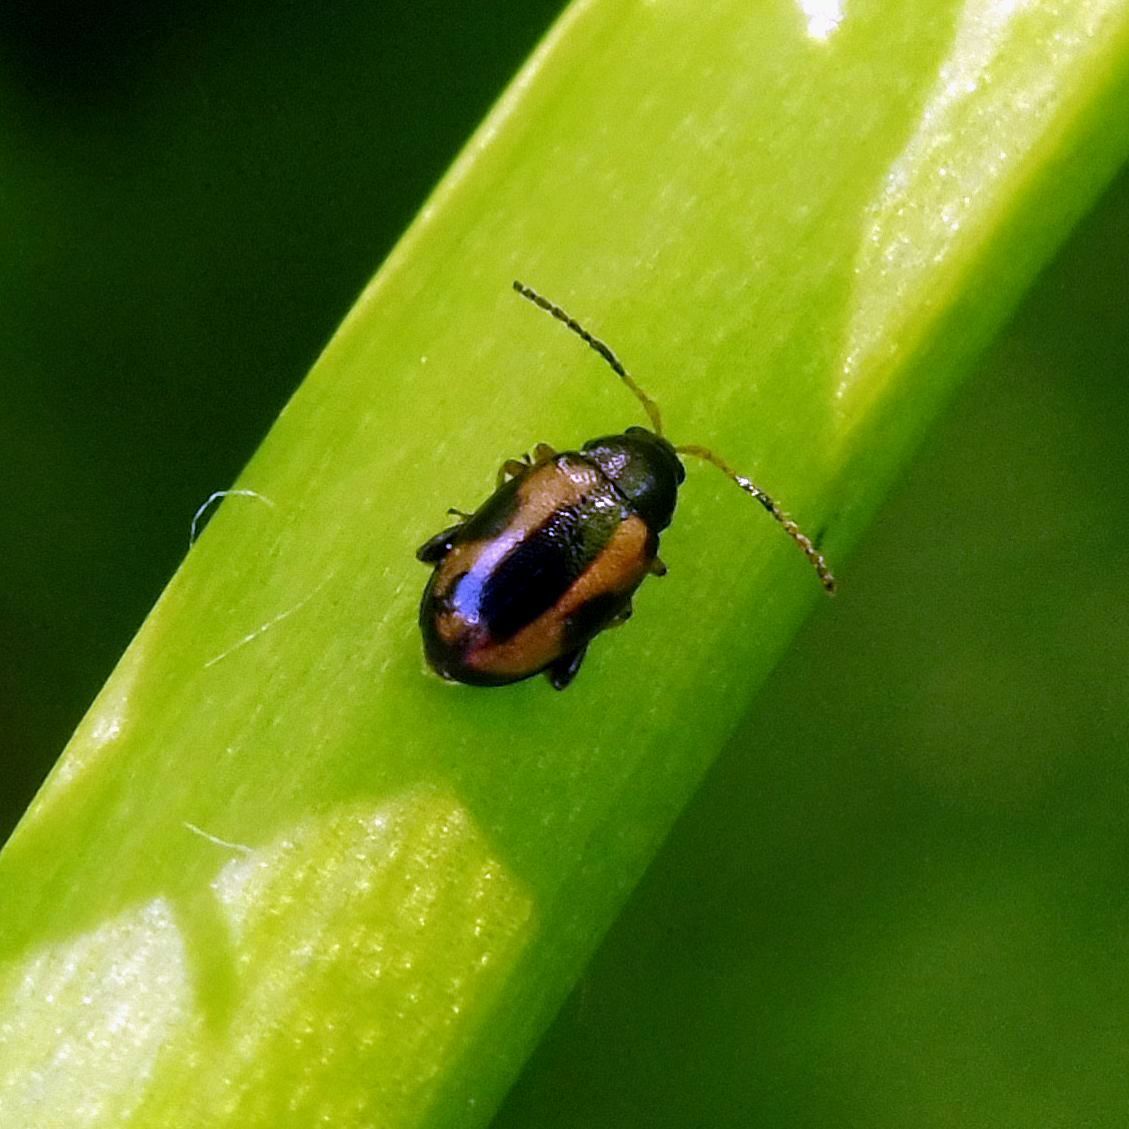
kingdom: Animalia
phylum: Arthropoda
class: Insecta
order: Coleoptera
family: Chrysomelidae
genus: Phyllotreta
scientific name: Phyllotreta ochripes
